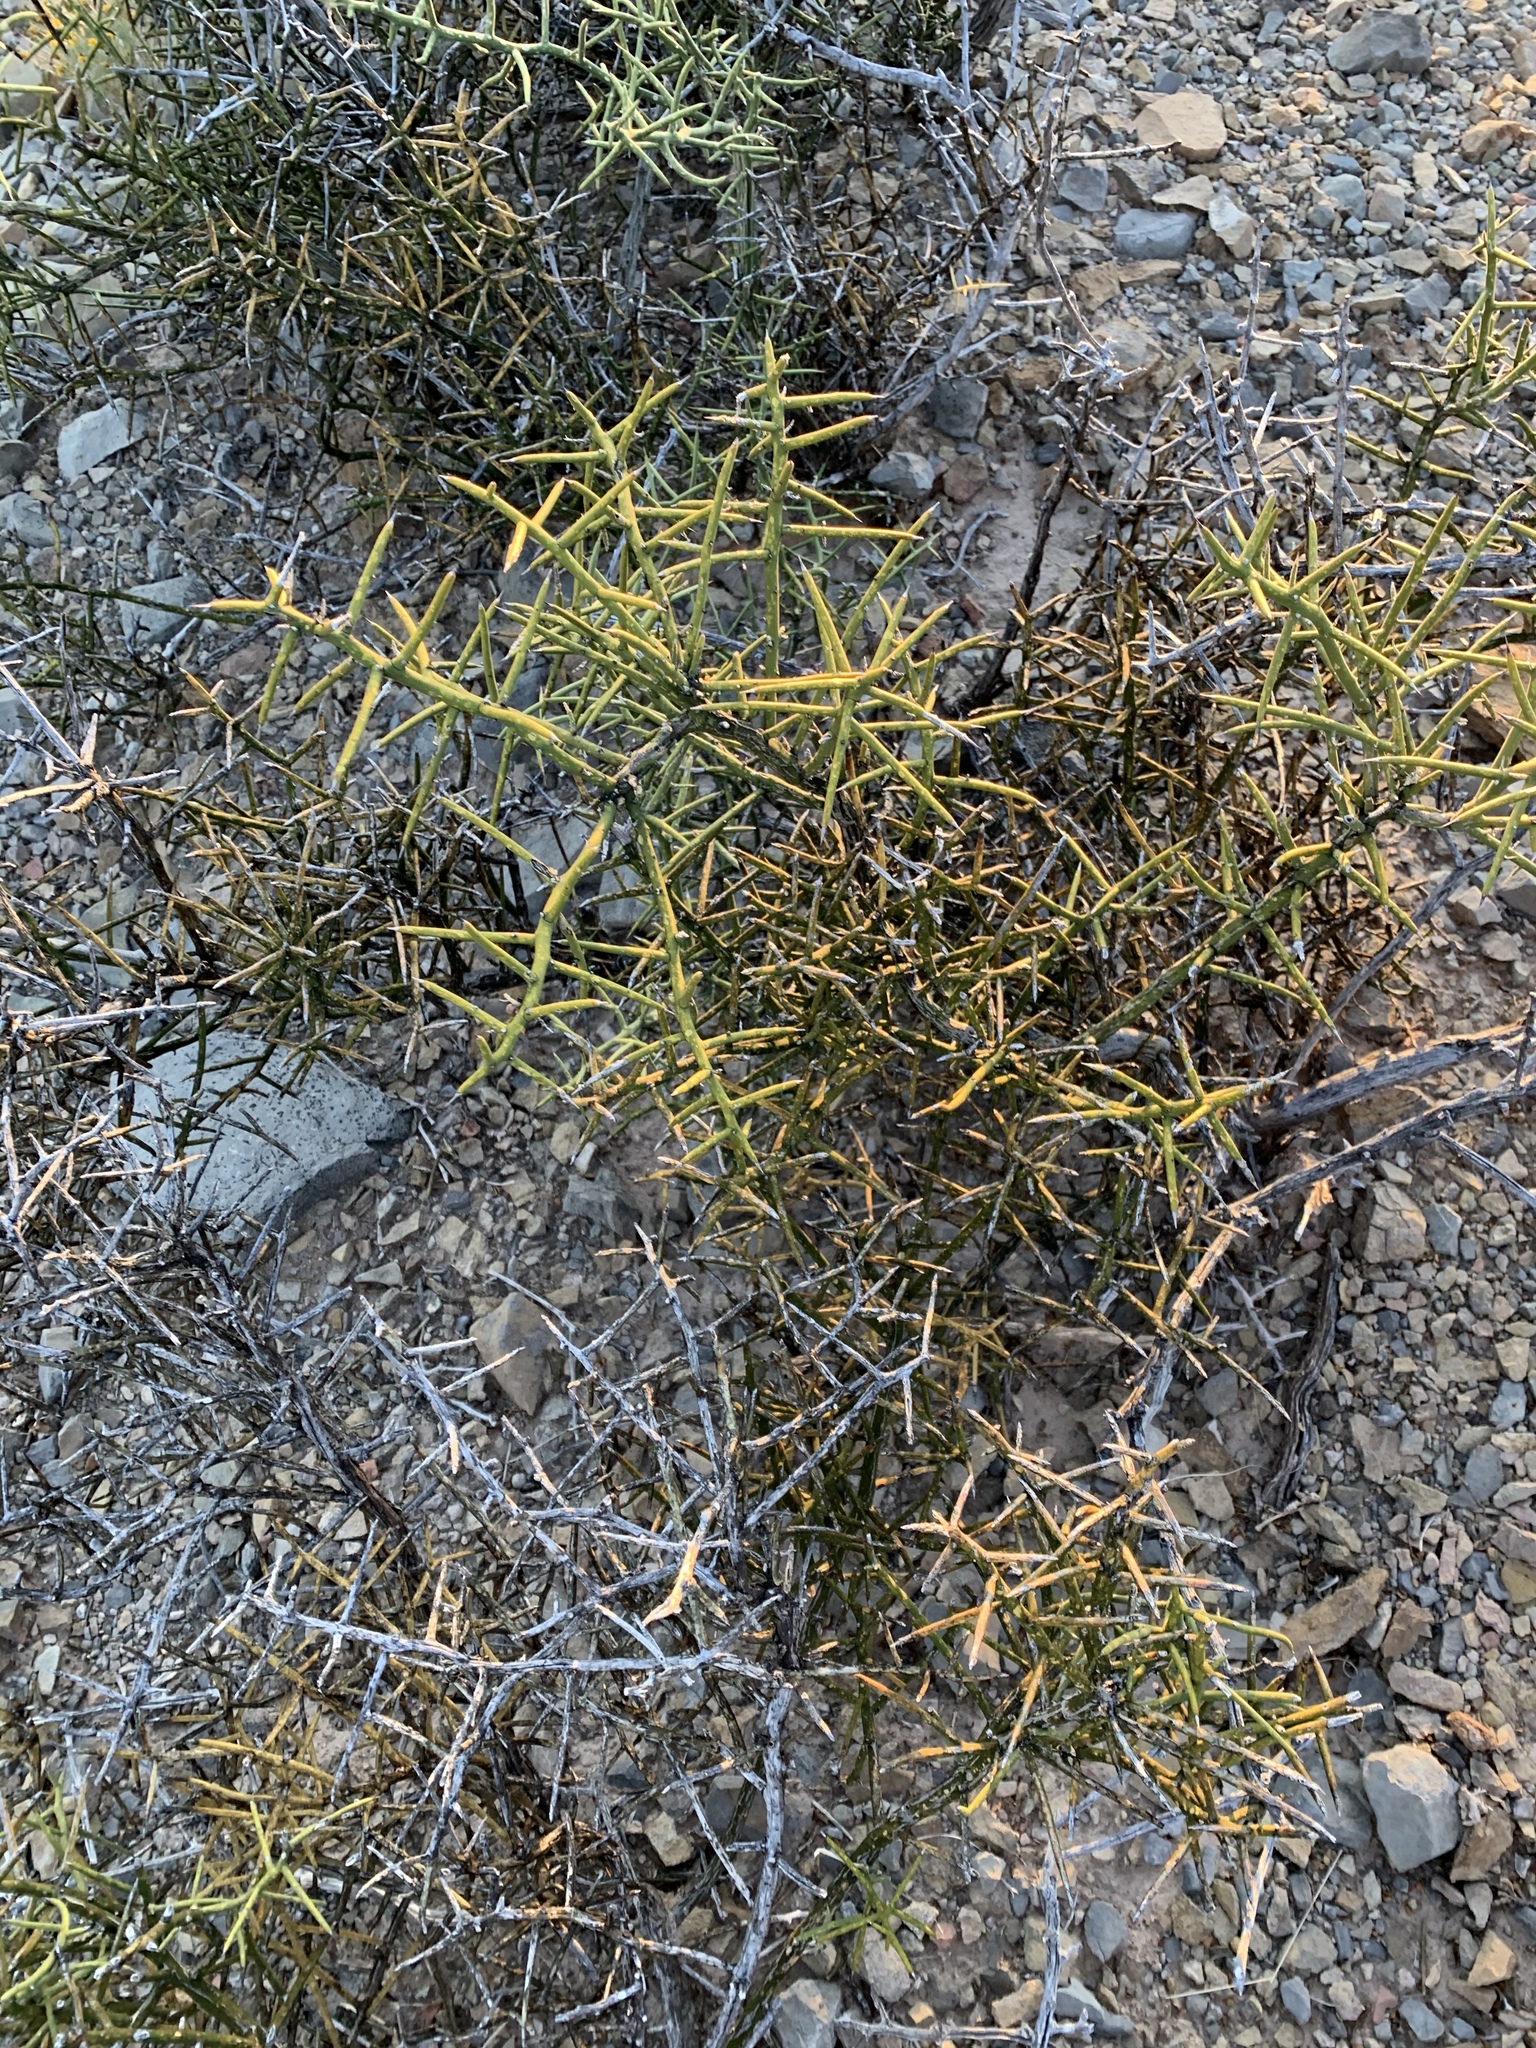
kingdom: Plantae
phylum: Tracheophyta
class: Magnoliopsida
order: Brassicales
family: Koeberliniaceae
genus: Koeberlinia
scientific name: Koeberlinia spinosa
